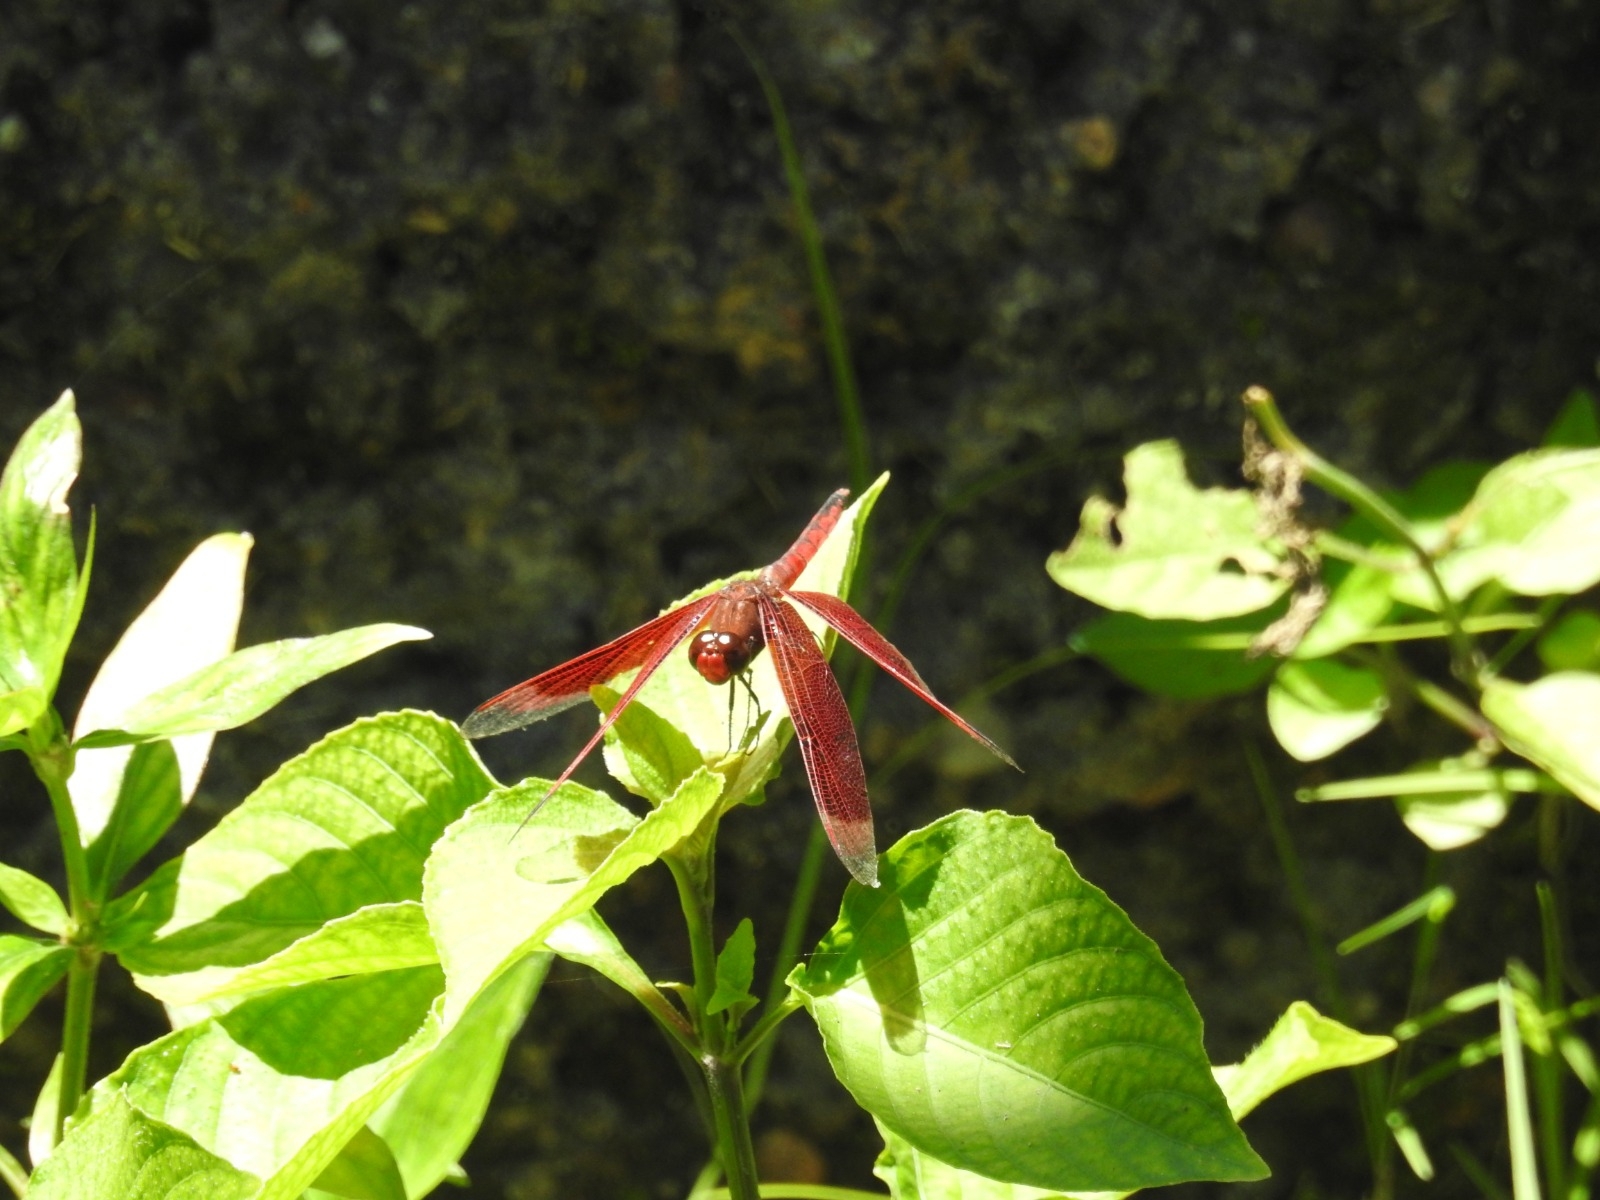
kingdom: Animalia
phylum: Arthropoda
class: Insecta
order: Odonata
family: Libellulidae
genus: Neurothemis
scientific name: Neurothemis ramburii
